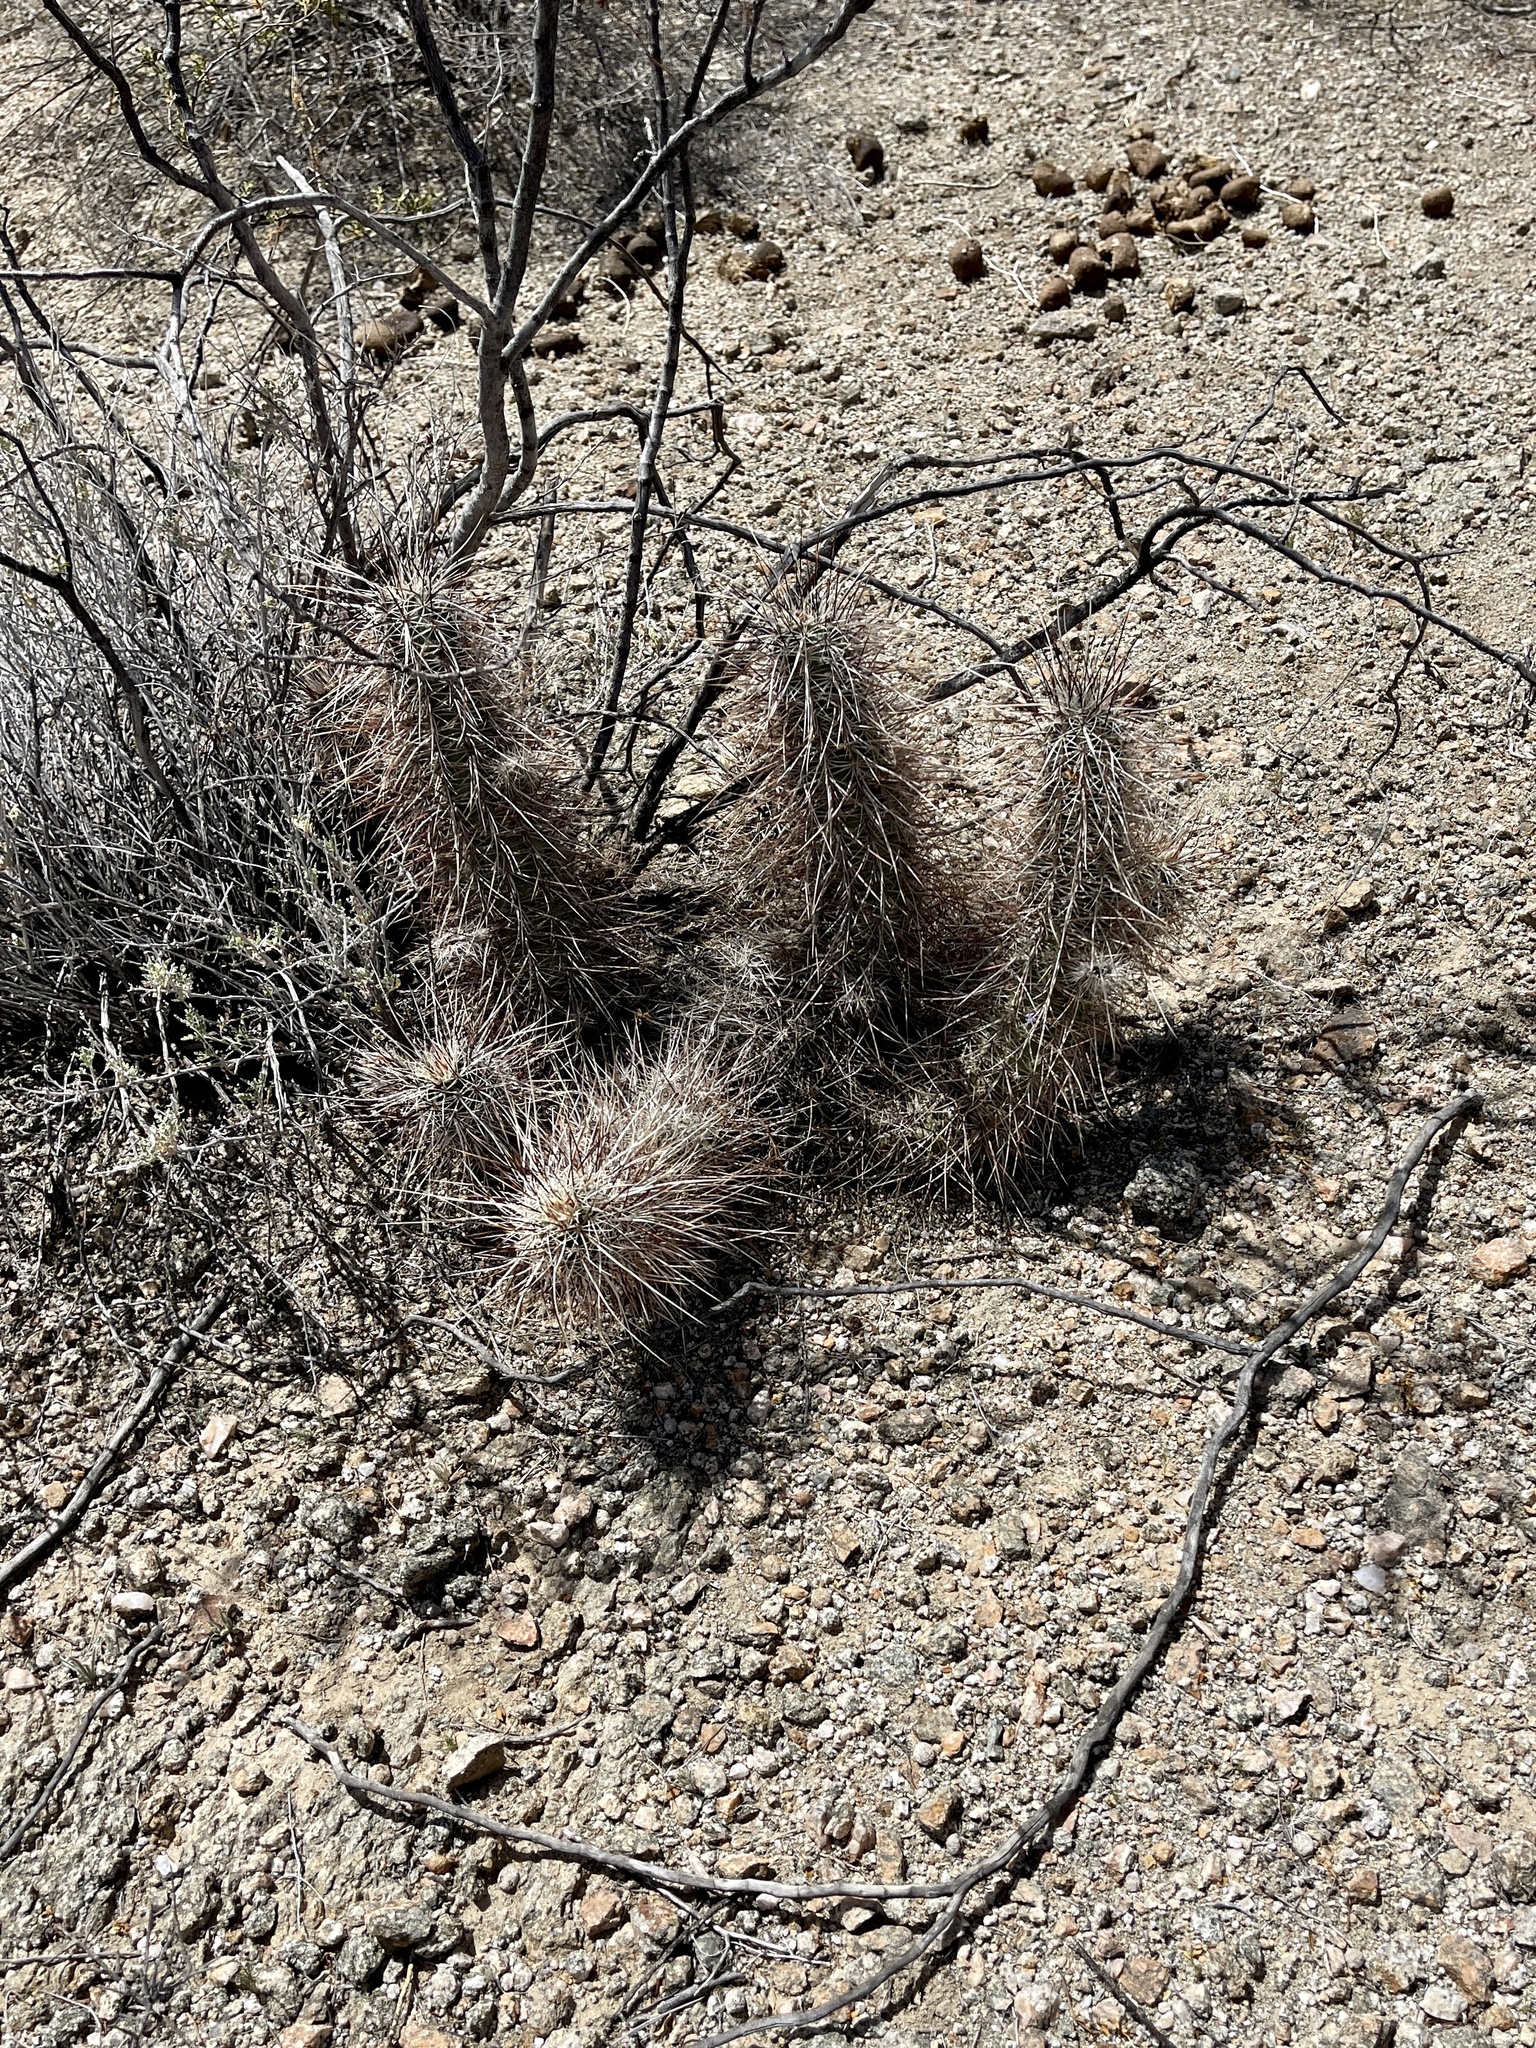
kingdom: Plantae
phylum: Tracheophyta
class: Magnoliopsida
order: Caryophyllales
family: Cactaceae
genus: Echinocereus
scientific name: Echinocereus engelmannii
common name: Engelmann's hedgehog cactus
